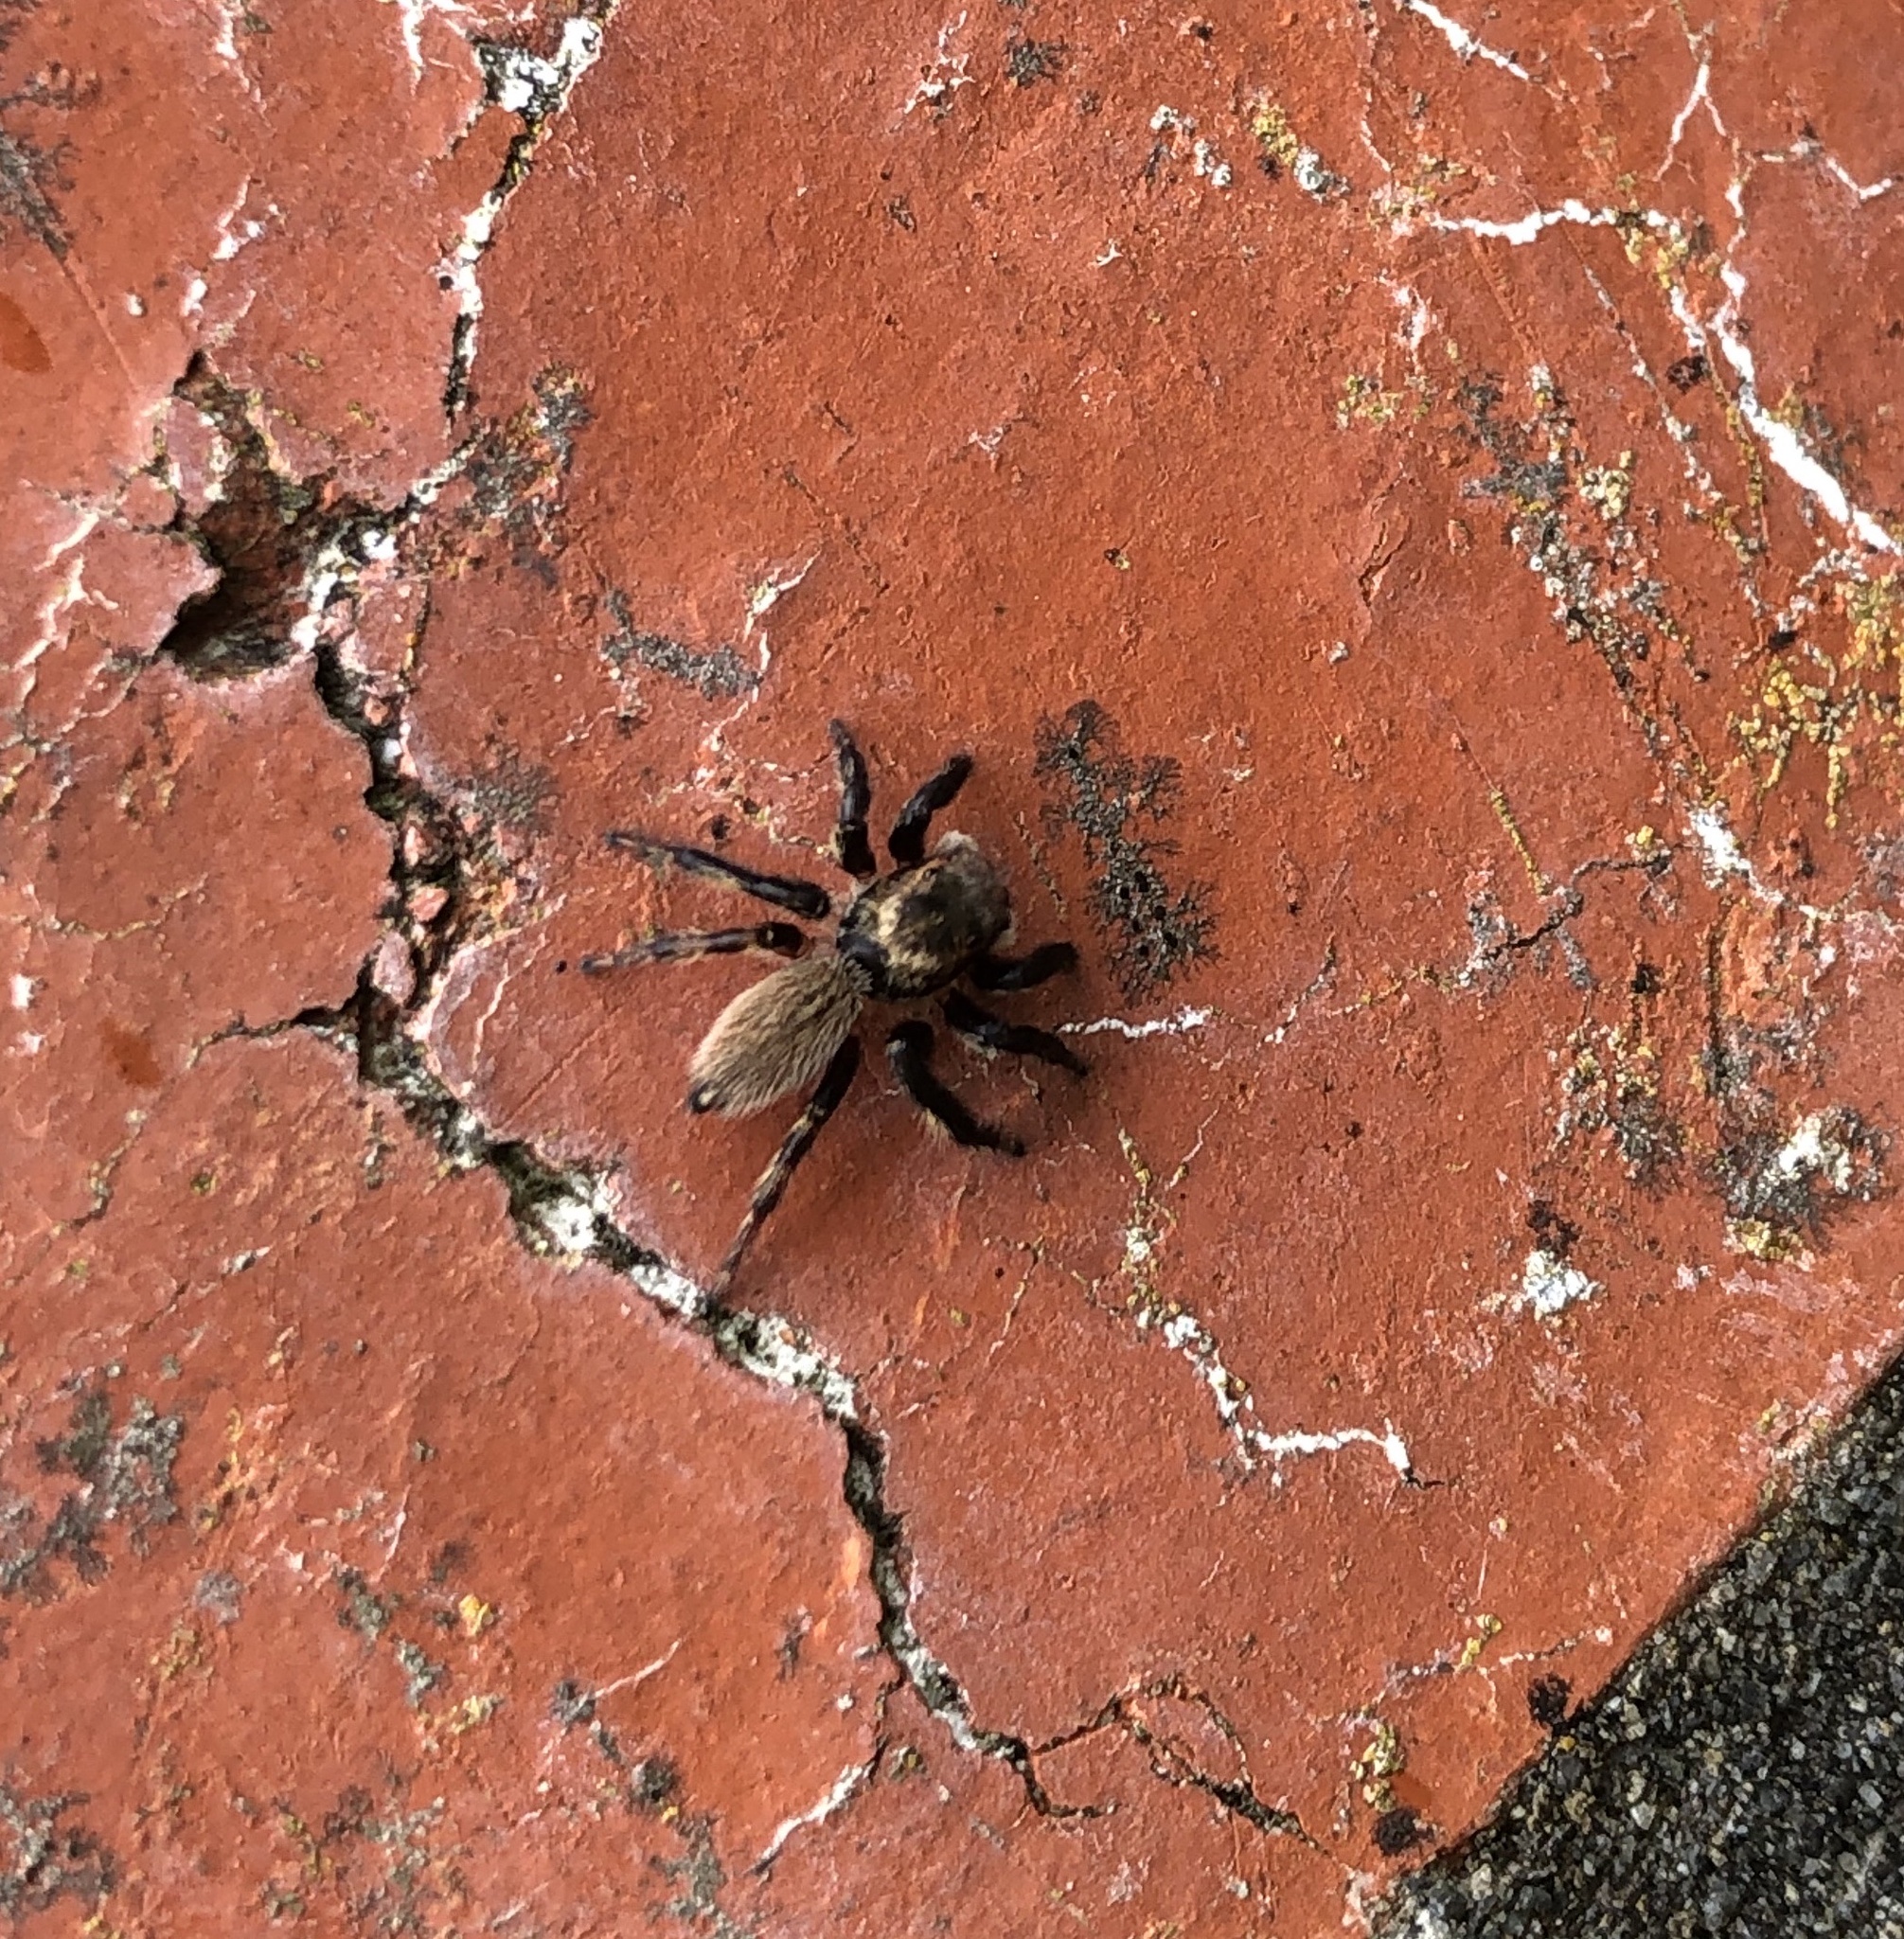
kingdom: Animalia
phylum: Arthropoda
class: Arachnida
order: Araneae
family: Salticidae
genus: Maratus
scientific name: Maratus griseus
